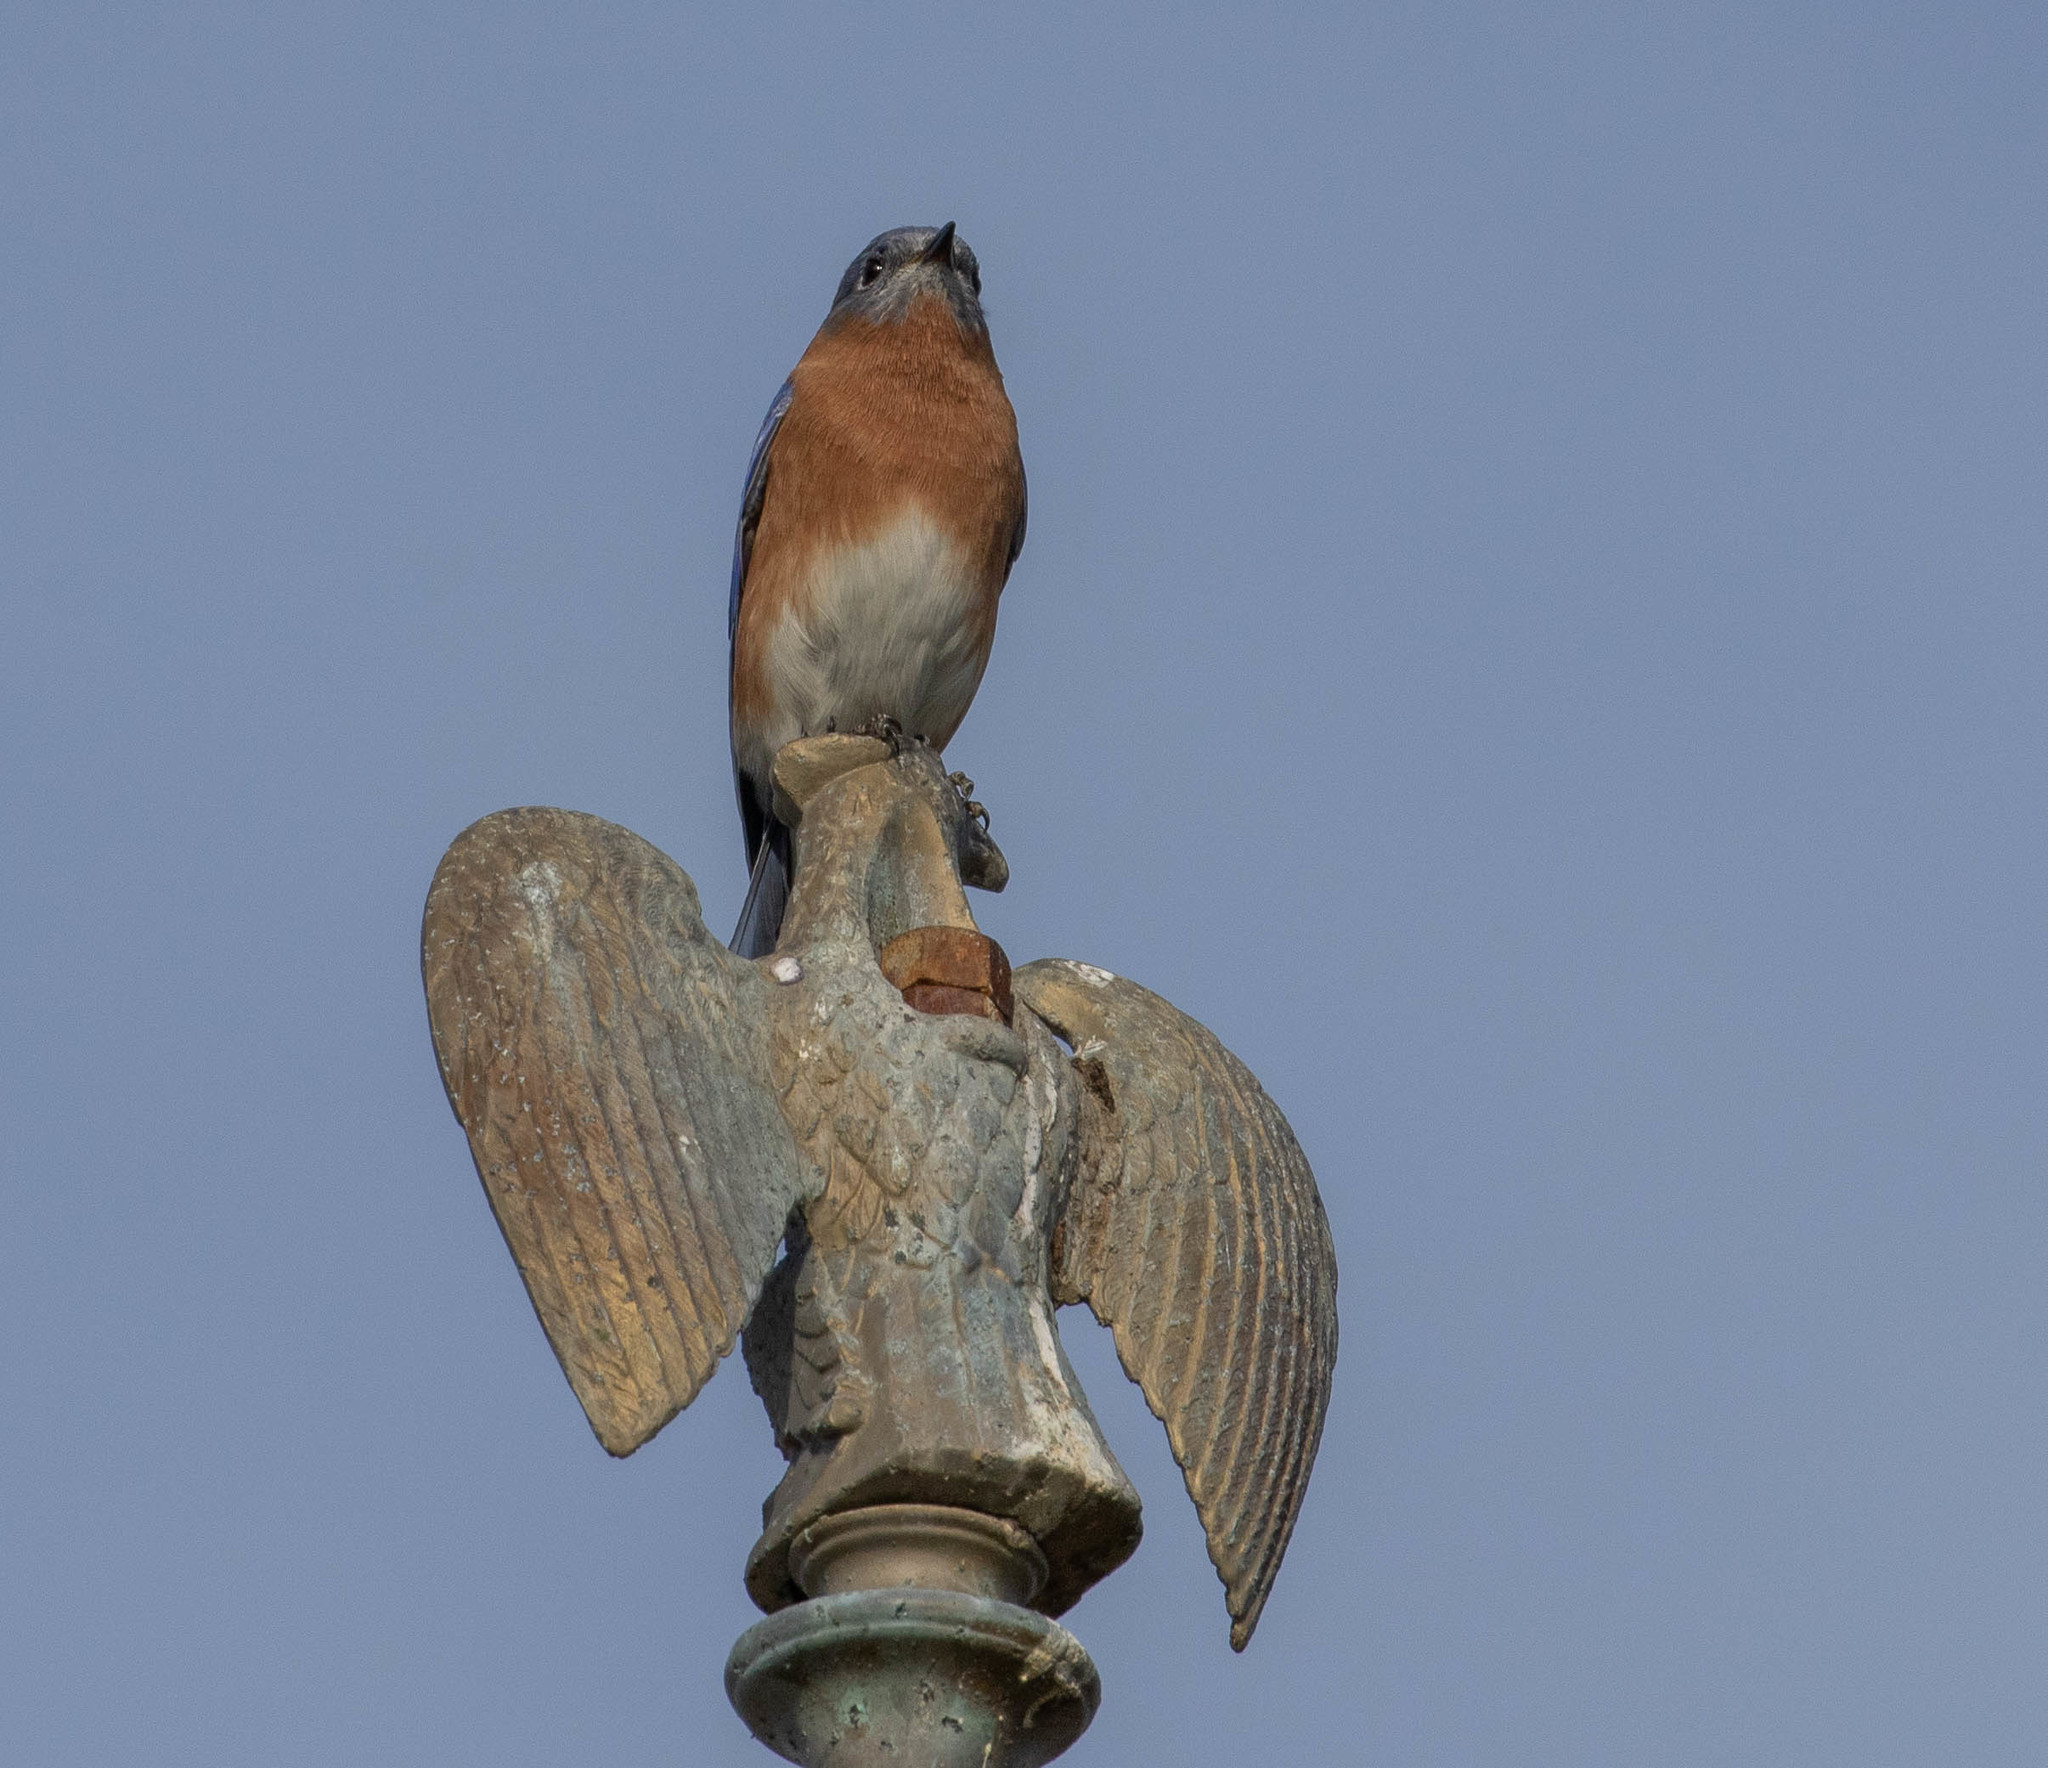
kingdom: Animalia
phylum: Chordata
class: Aves
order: Passeriformes
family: Turdidae
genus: Sialia
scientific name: Sialia sialis
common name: Eastern bluebird
